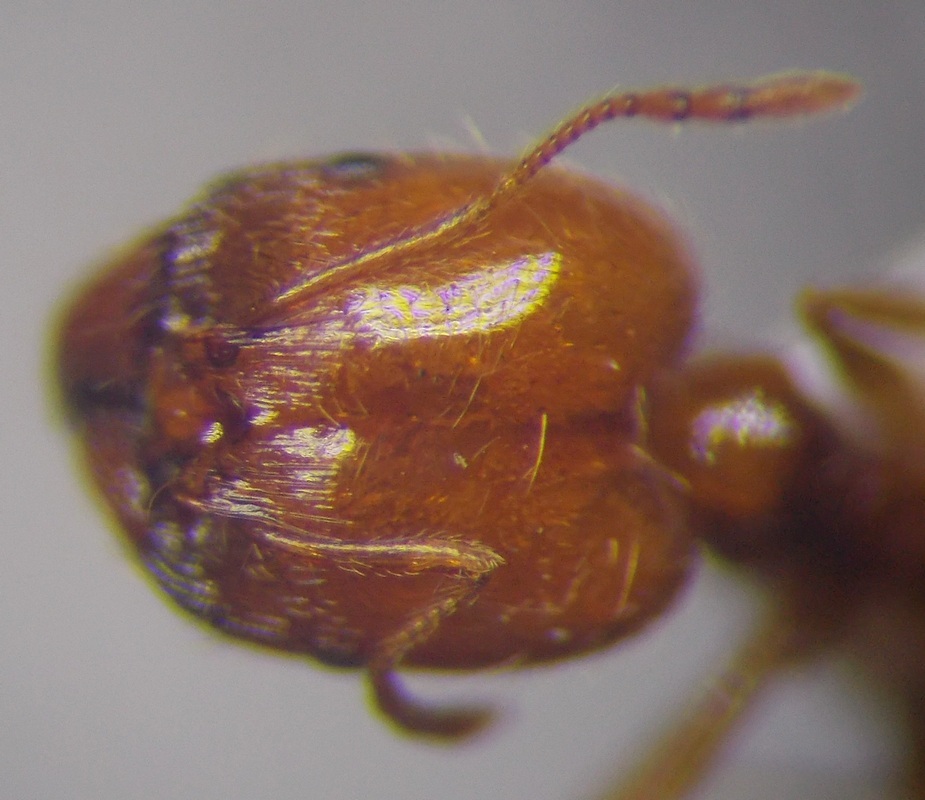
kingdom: Animalia
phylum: Arthropoda
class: Insecta
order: Hymenoptera
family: Formicidae
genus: Pheidole
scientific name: Pheidole pallidula
